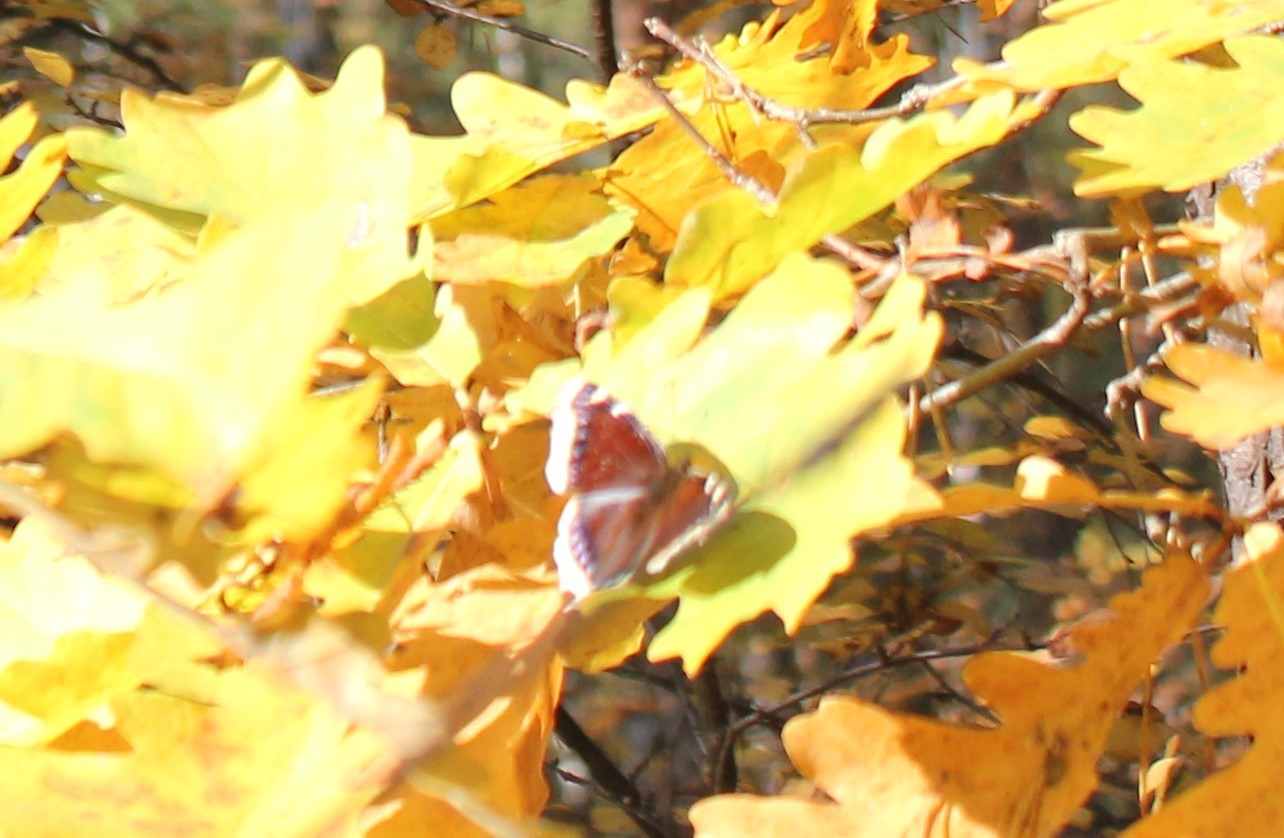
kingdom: Animalia
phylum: Arthropoda
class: Insecta
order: Lepidoptera
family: Nymphalidae
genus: Nymphalis
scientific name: Nymphalis antiopa
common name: Camberwell beauty
